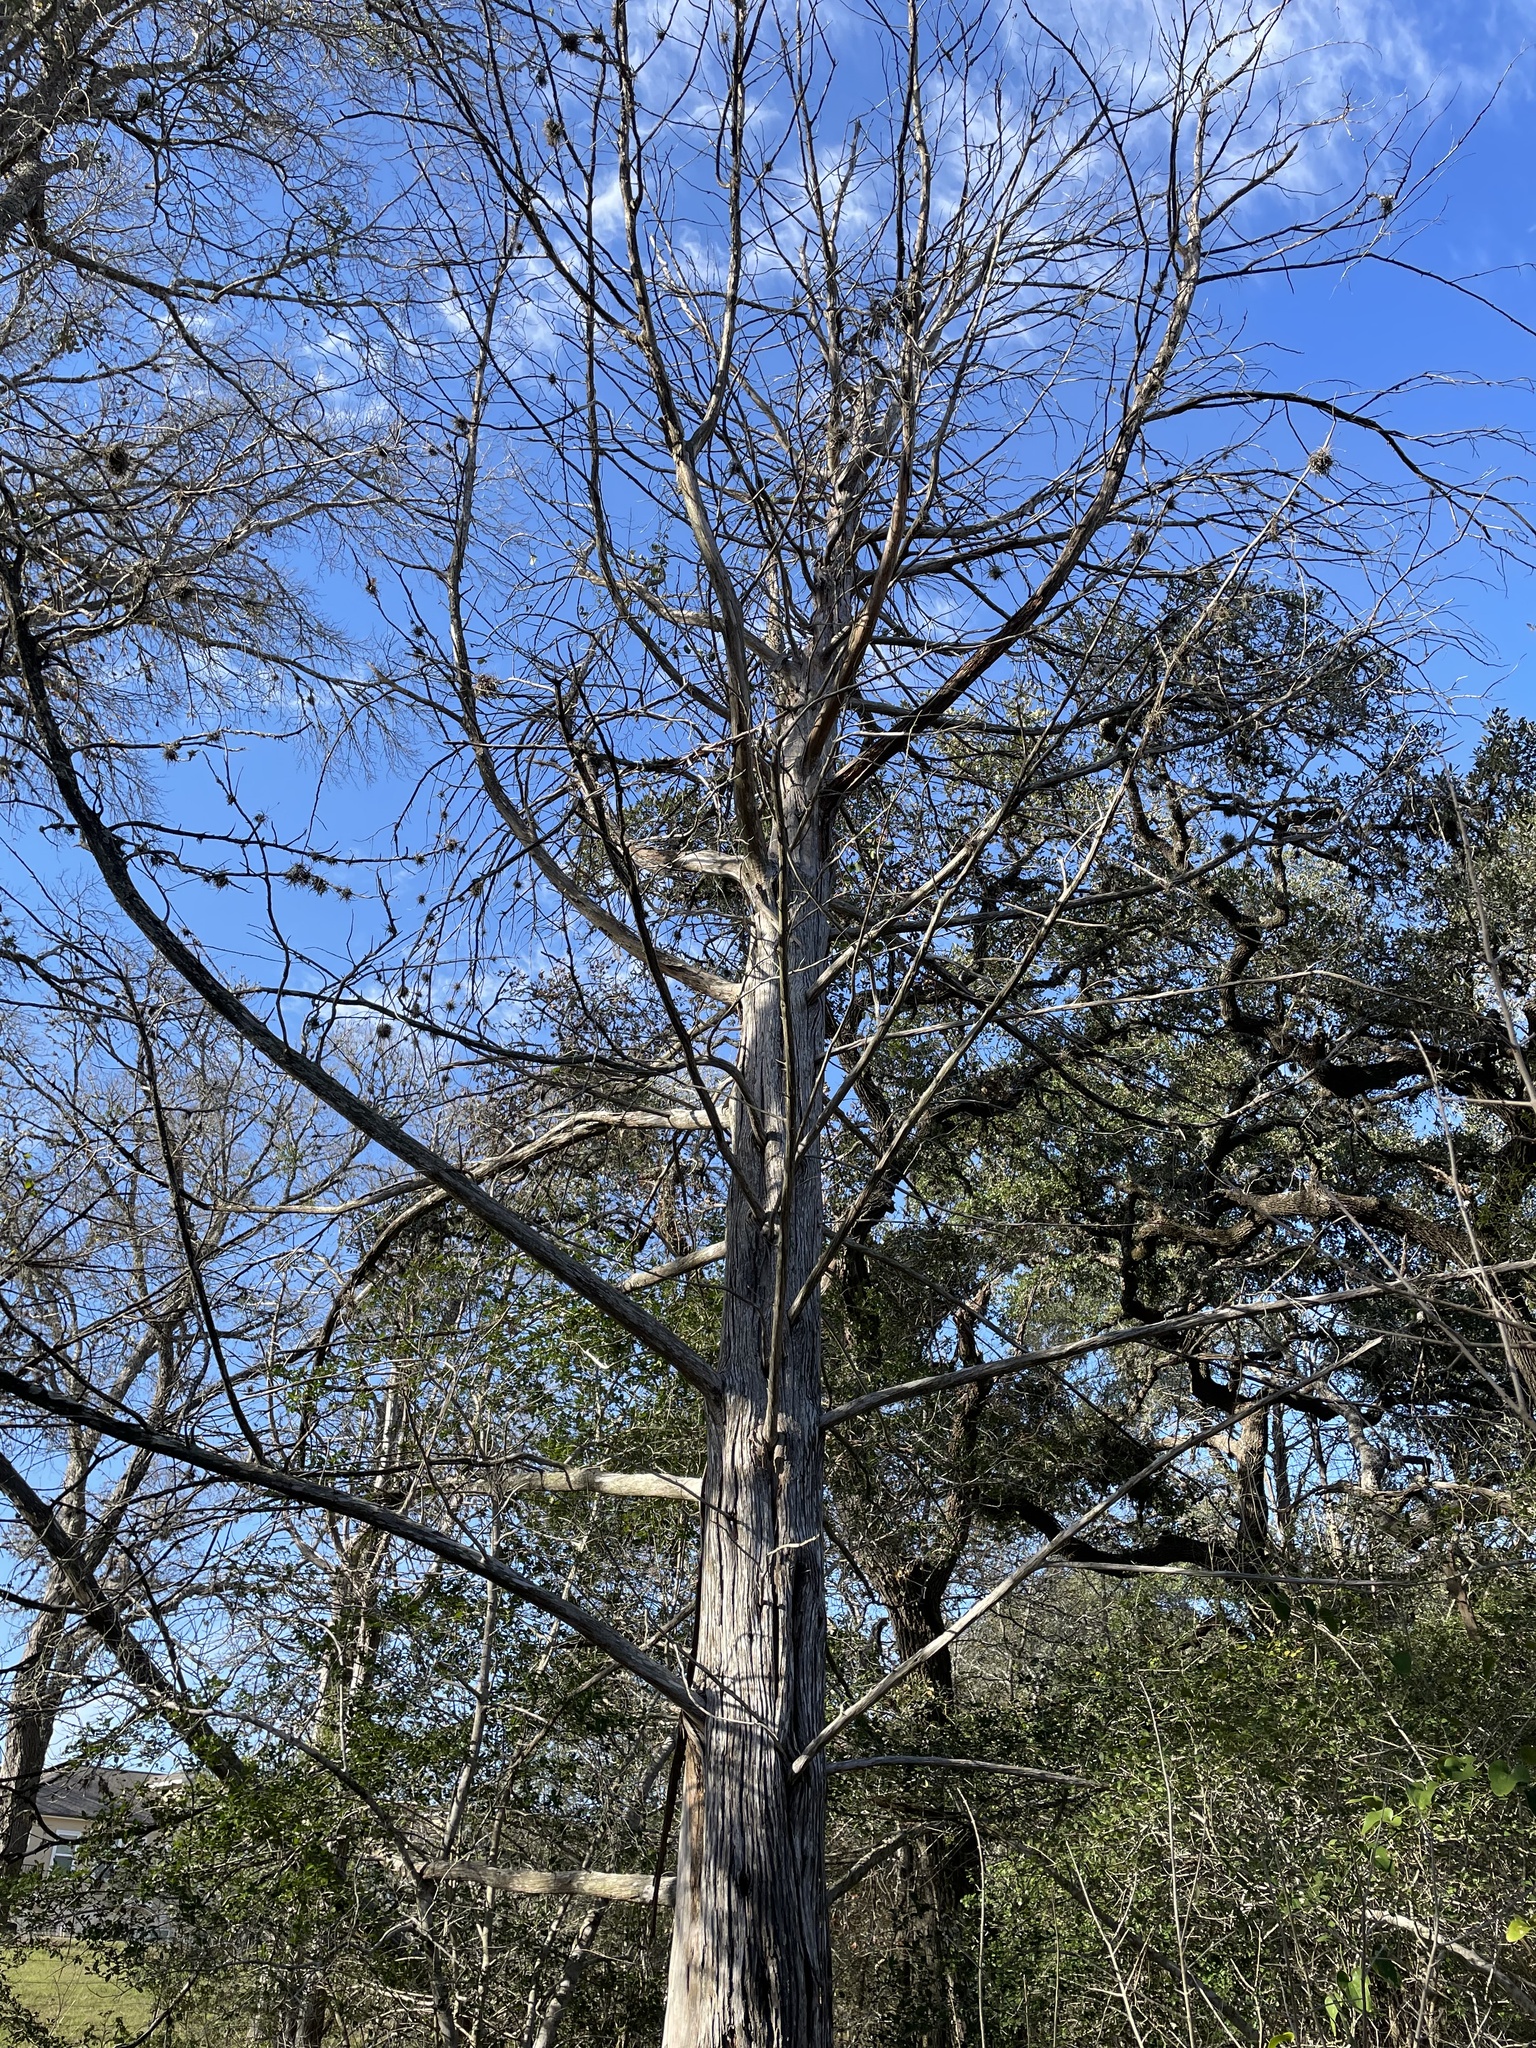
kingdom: Plantae
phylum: Tracheophyta
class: Pinopsida
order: Pinales
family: Cupressaceae
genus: Juniperus
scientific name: Juniperus virginiana
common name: Red juniper
